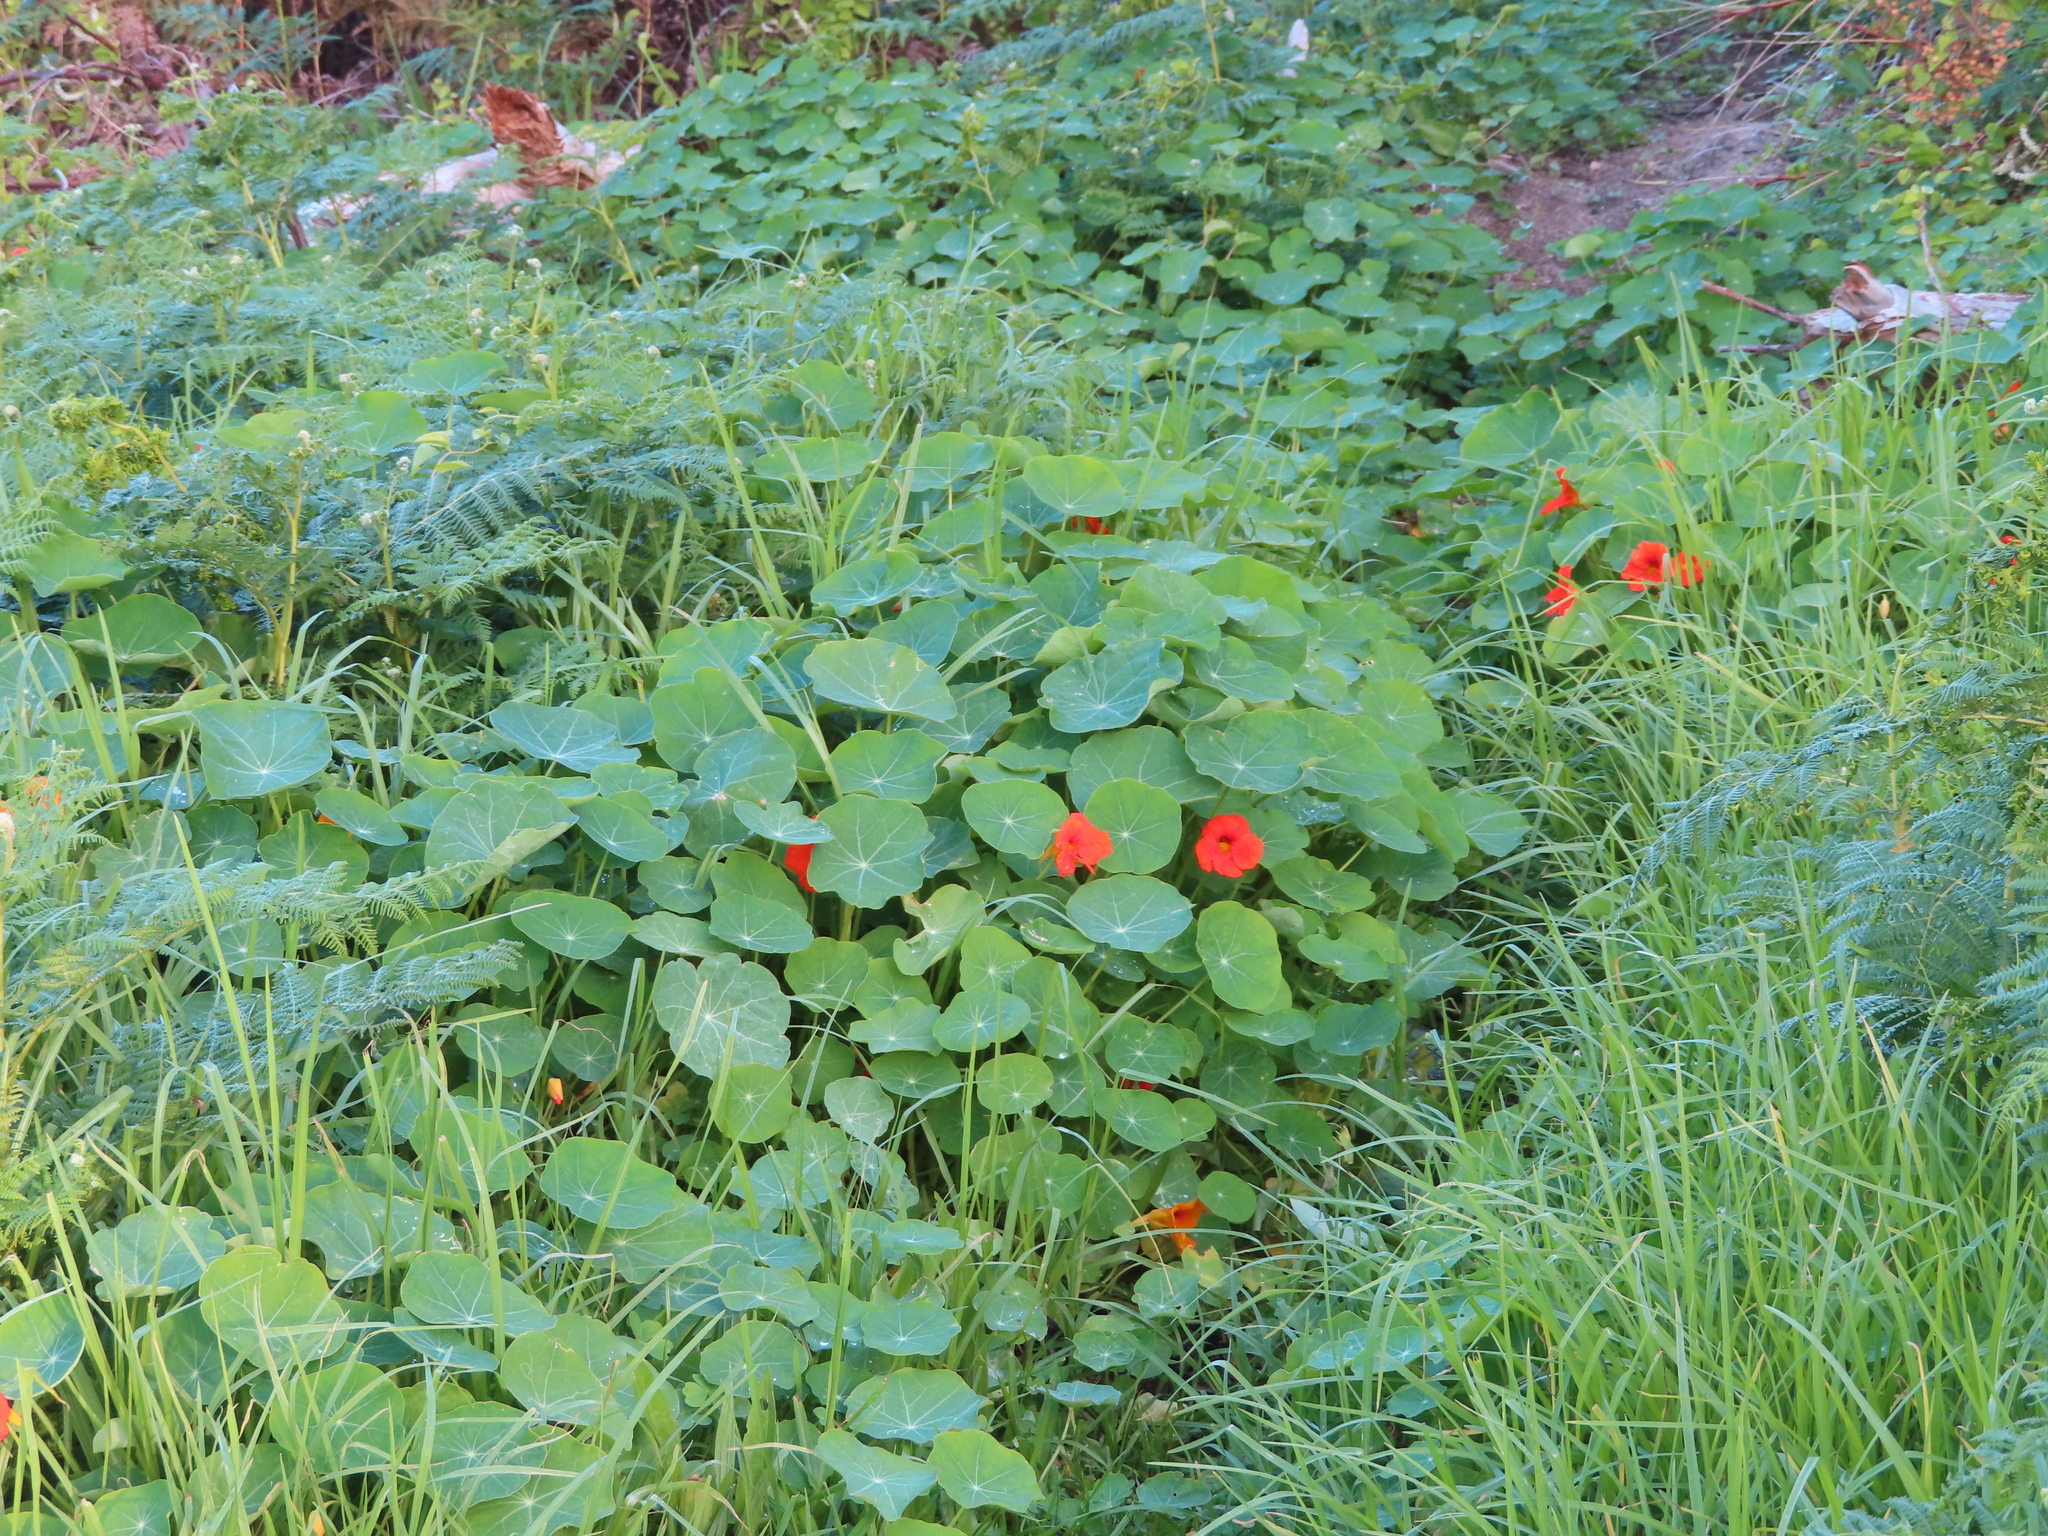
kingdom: Plantae
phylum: Tracheophyta
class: Magnoliopsida
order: Brassicales
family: Tropaeolaceae
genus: Tropaeolum
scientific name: Tropaeolum majus
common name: Nasturtium
